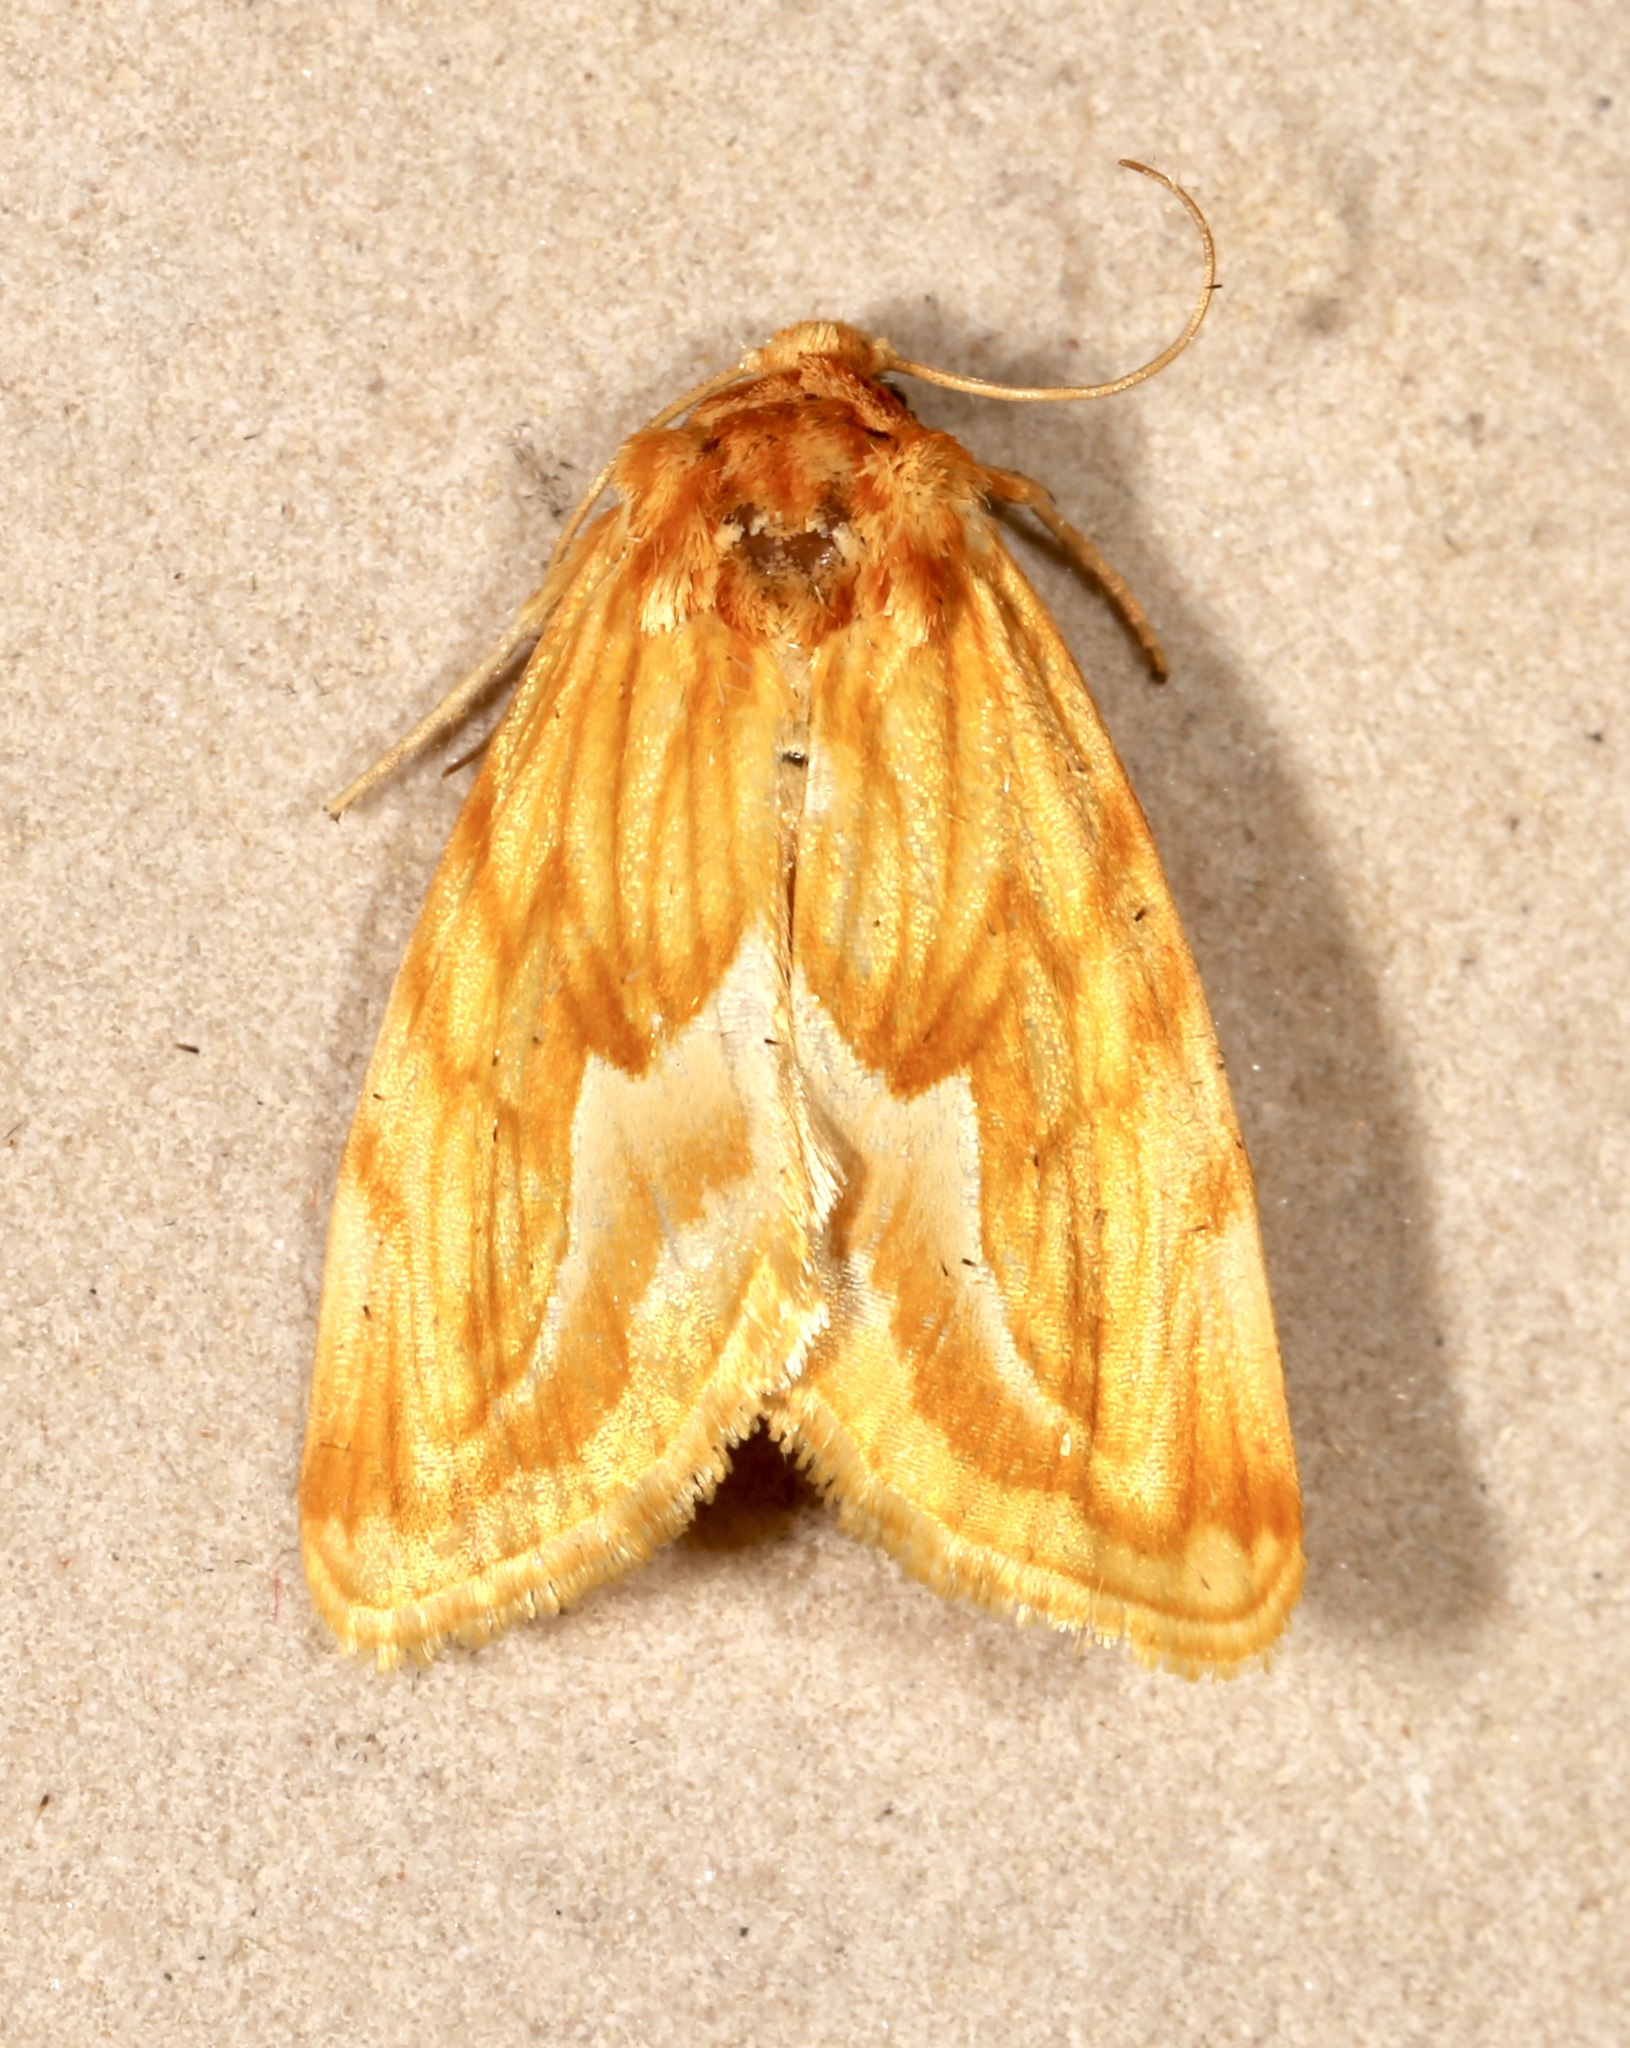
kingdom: Animalia
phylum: Arthropoda
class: Insecta
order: Lepidoptera
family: Noctuidae
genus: Cirrhophanus
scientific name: Cirrhophanus dyari
